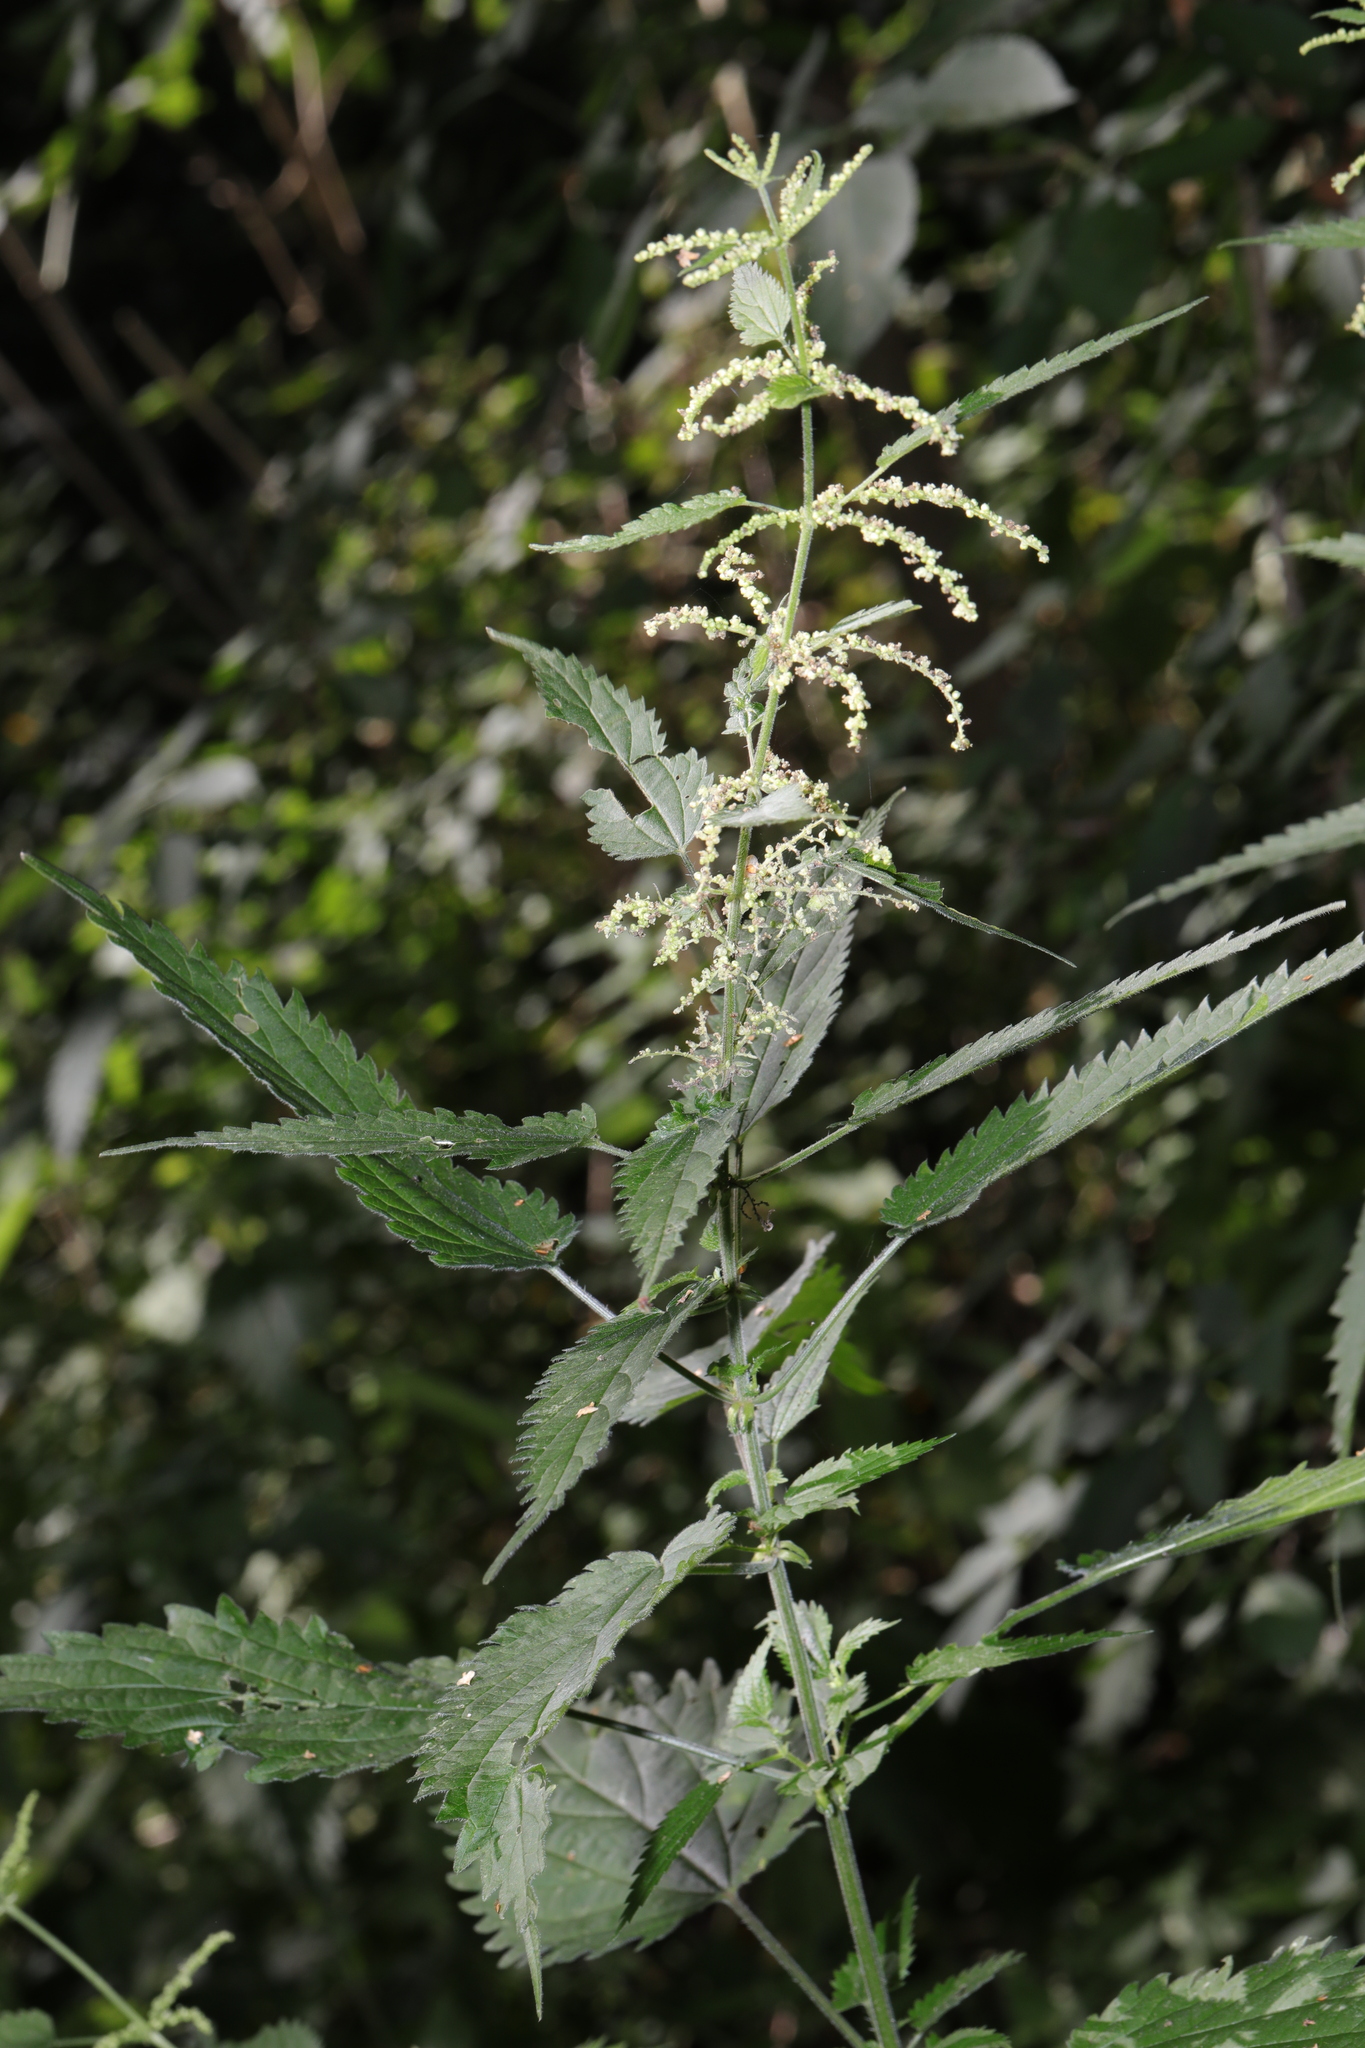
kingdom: Plantae
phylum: Tracheophyta
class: Magnoliopsida
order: Rosales
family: Urticaceae
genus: Urtica
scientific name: Urtica dioica
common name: Common nettle
